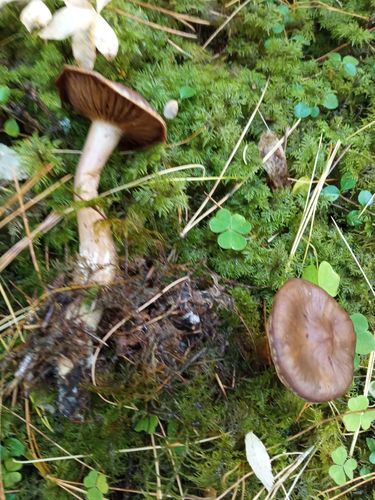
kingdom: Fungi
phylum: Basidiomycota
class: Agaricomycetes
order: Agaricales
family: Cortinariaceae
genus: Cortinarius
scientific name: Cortinarius brunneus
